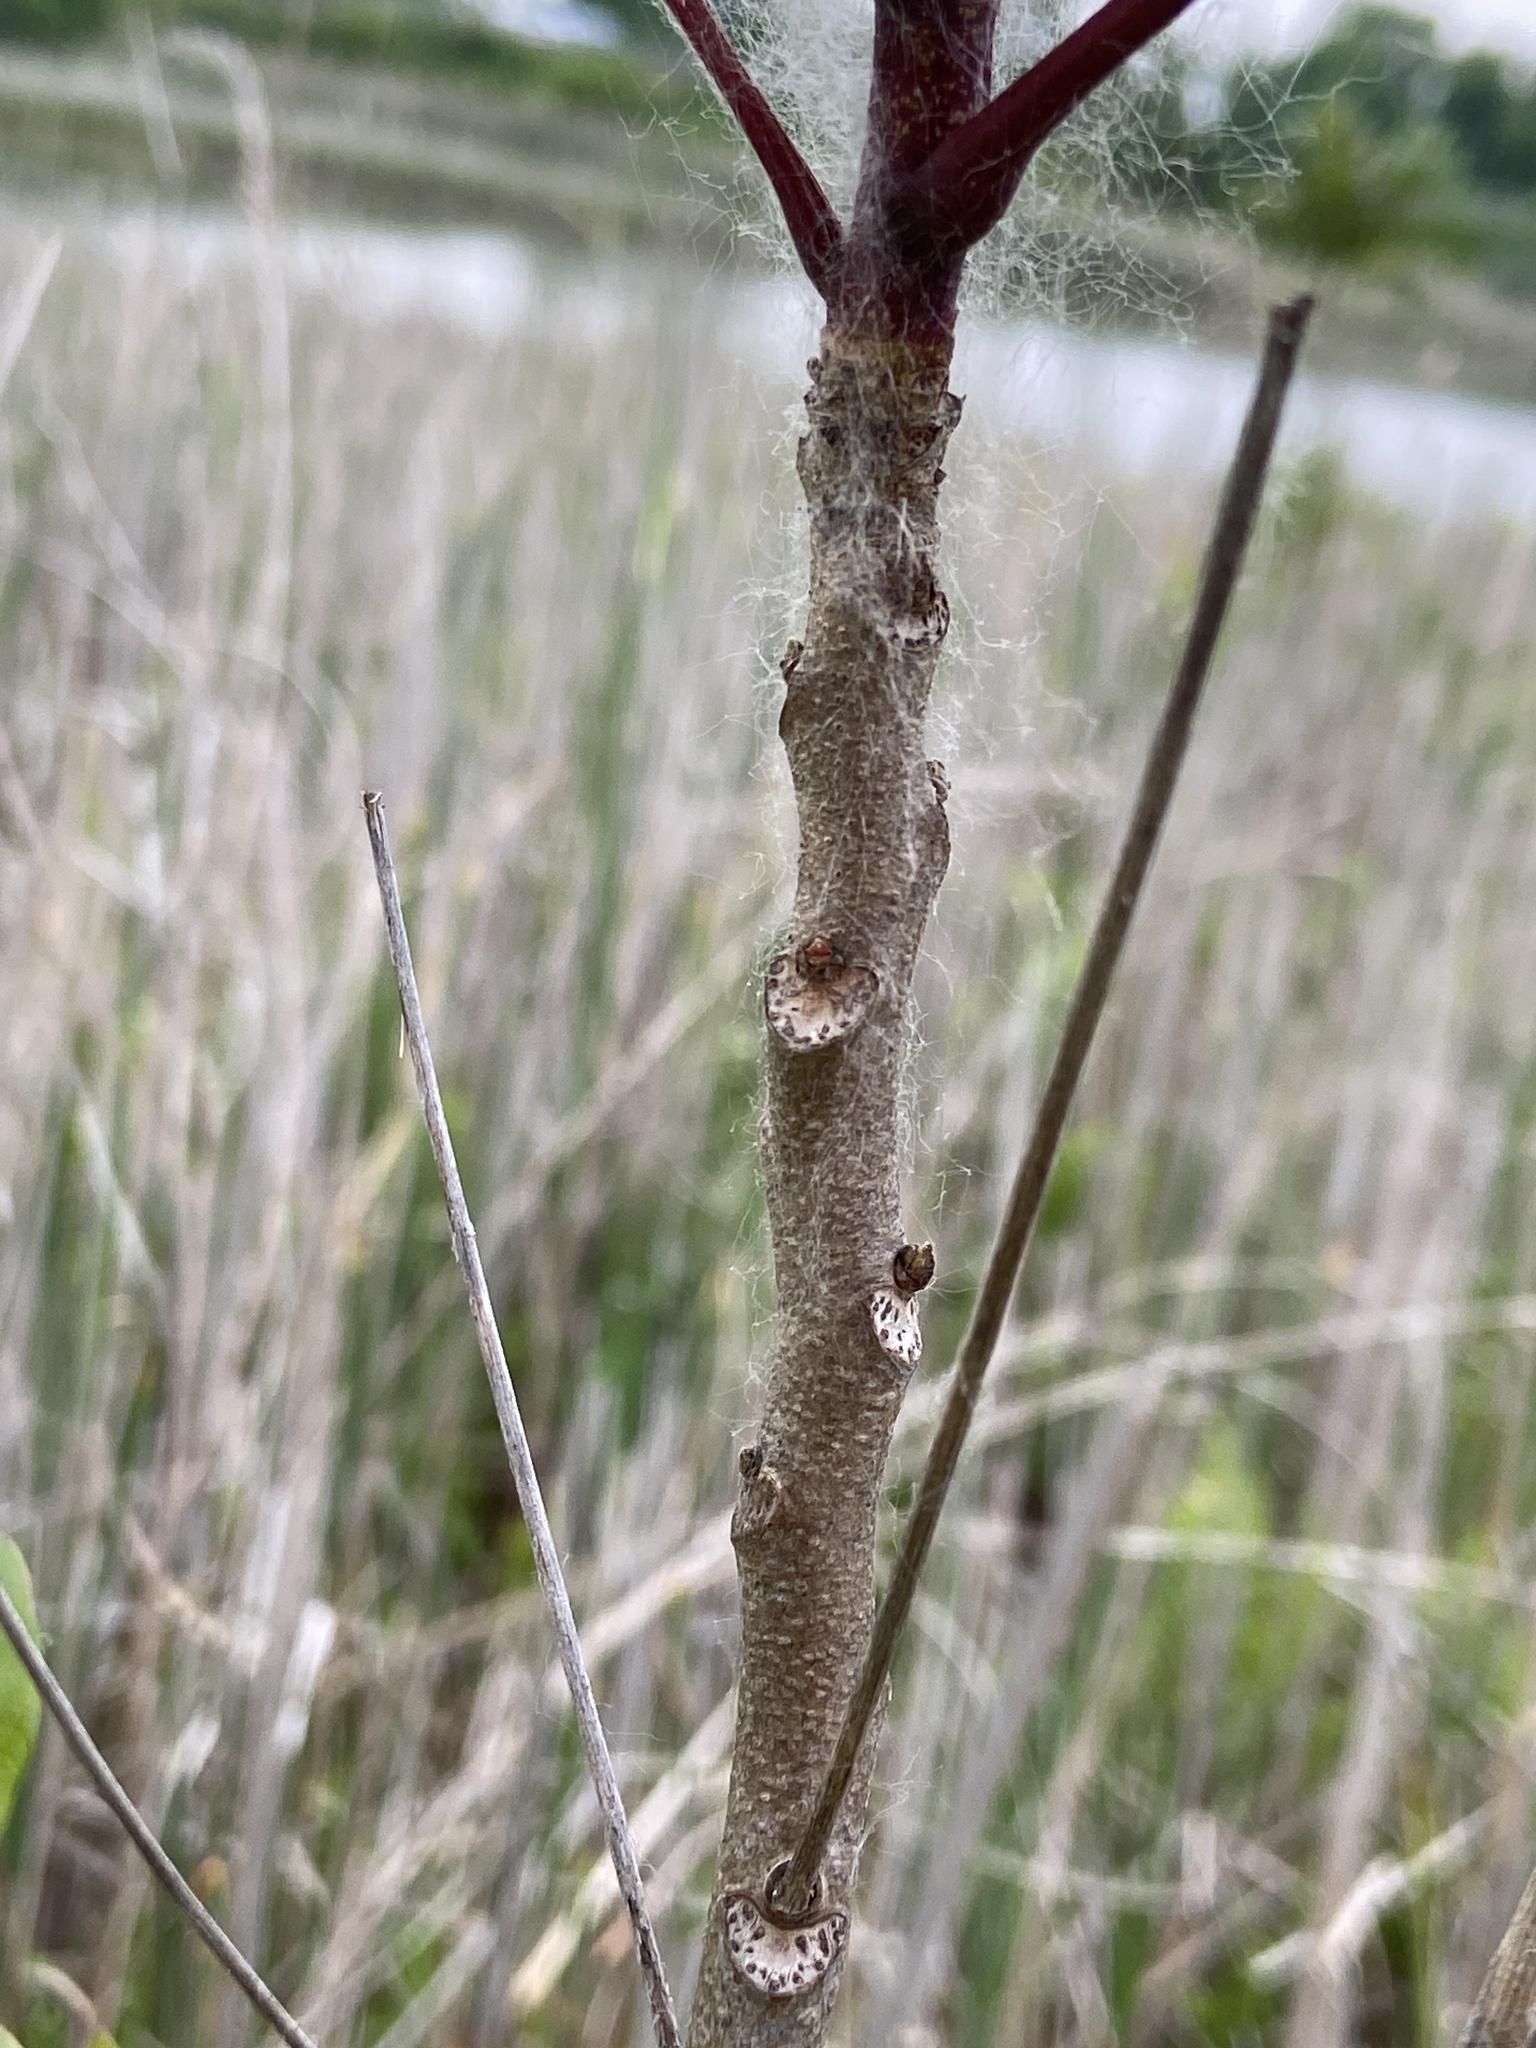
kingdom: Plantae
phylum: Tracheophyta
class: Magnoliopsida
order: Sapindales
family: Anacardiaceae
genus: Toxicodendron
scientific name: Toxicodendron vernix
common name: Poison sumac
